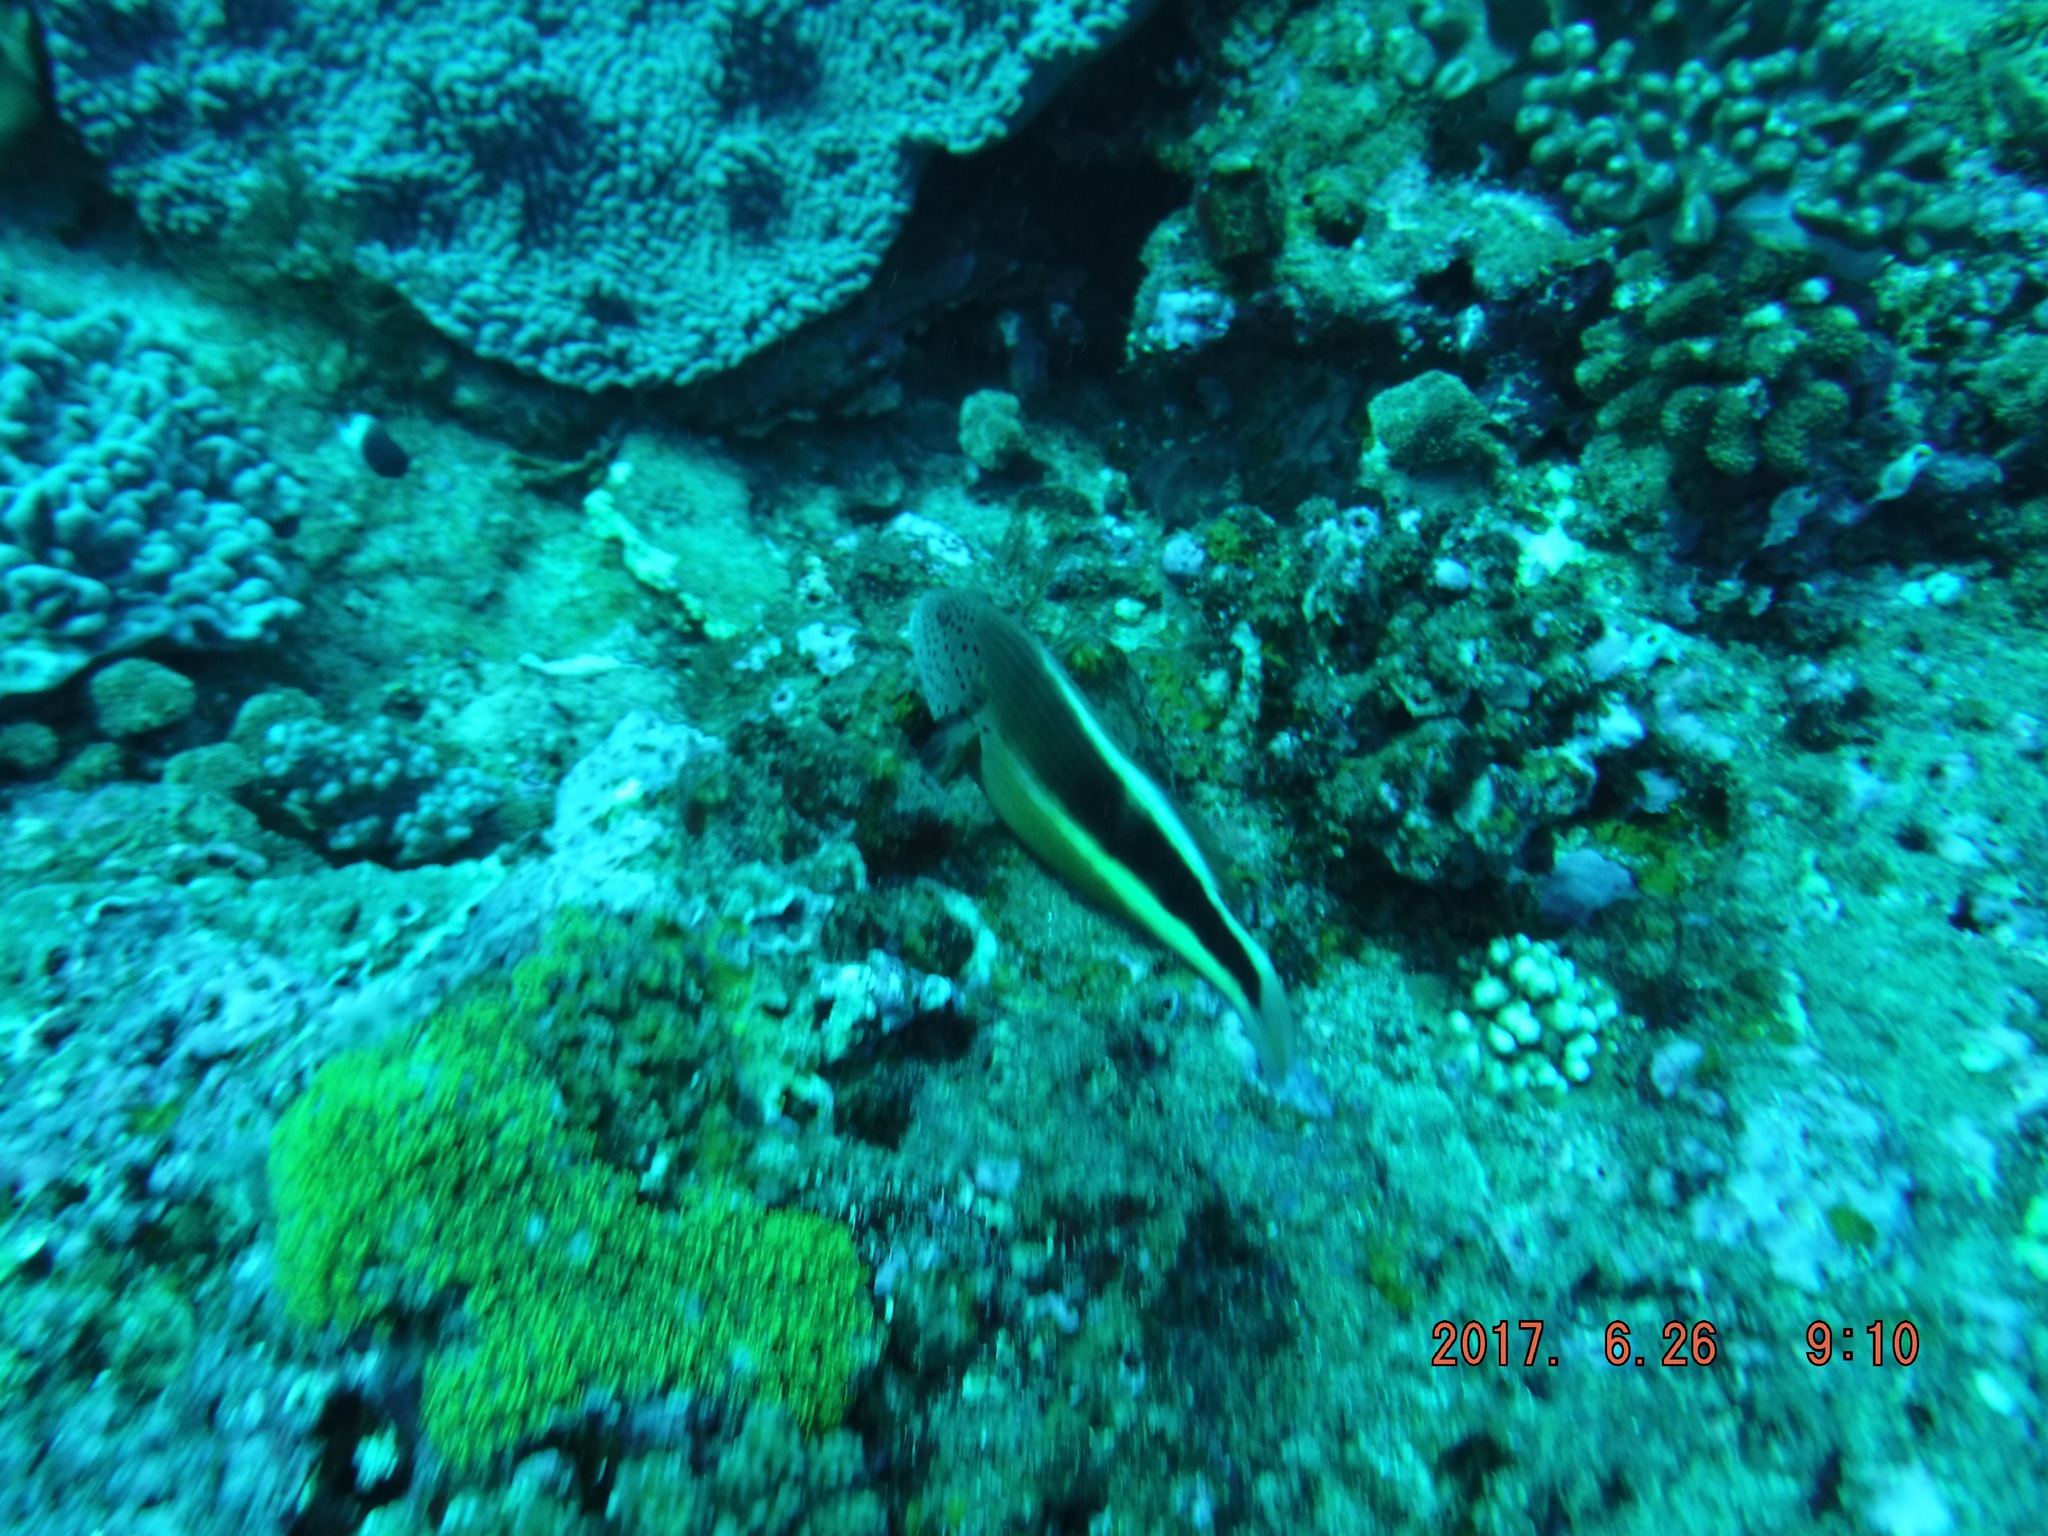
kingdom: Animalia
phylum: Chordata
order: Perciformes
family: Cirrhitidae
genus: Paracirrhites
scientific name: Paracirrhites forsteri
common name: Freckled hawkfish
